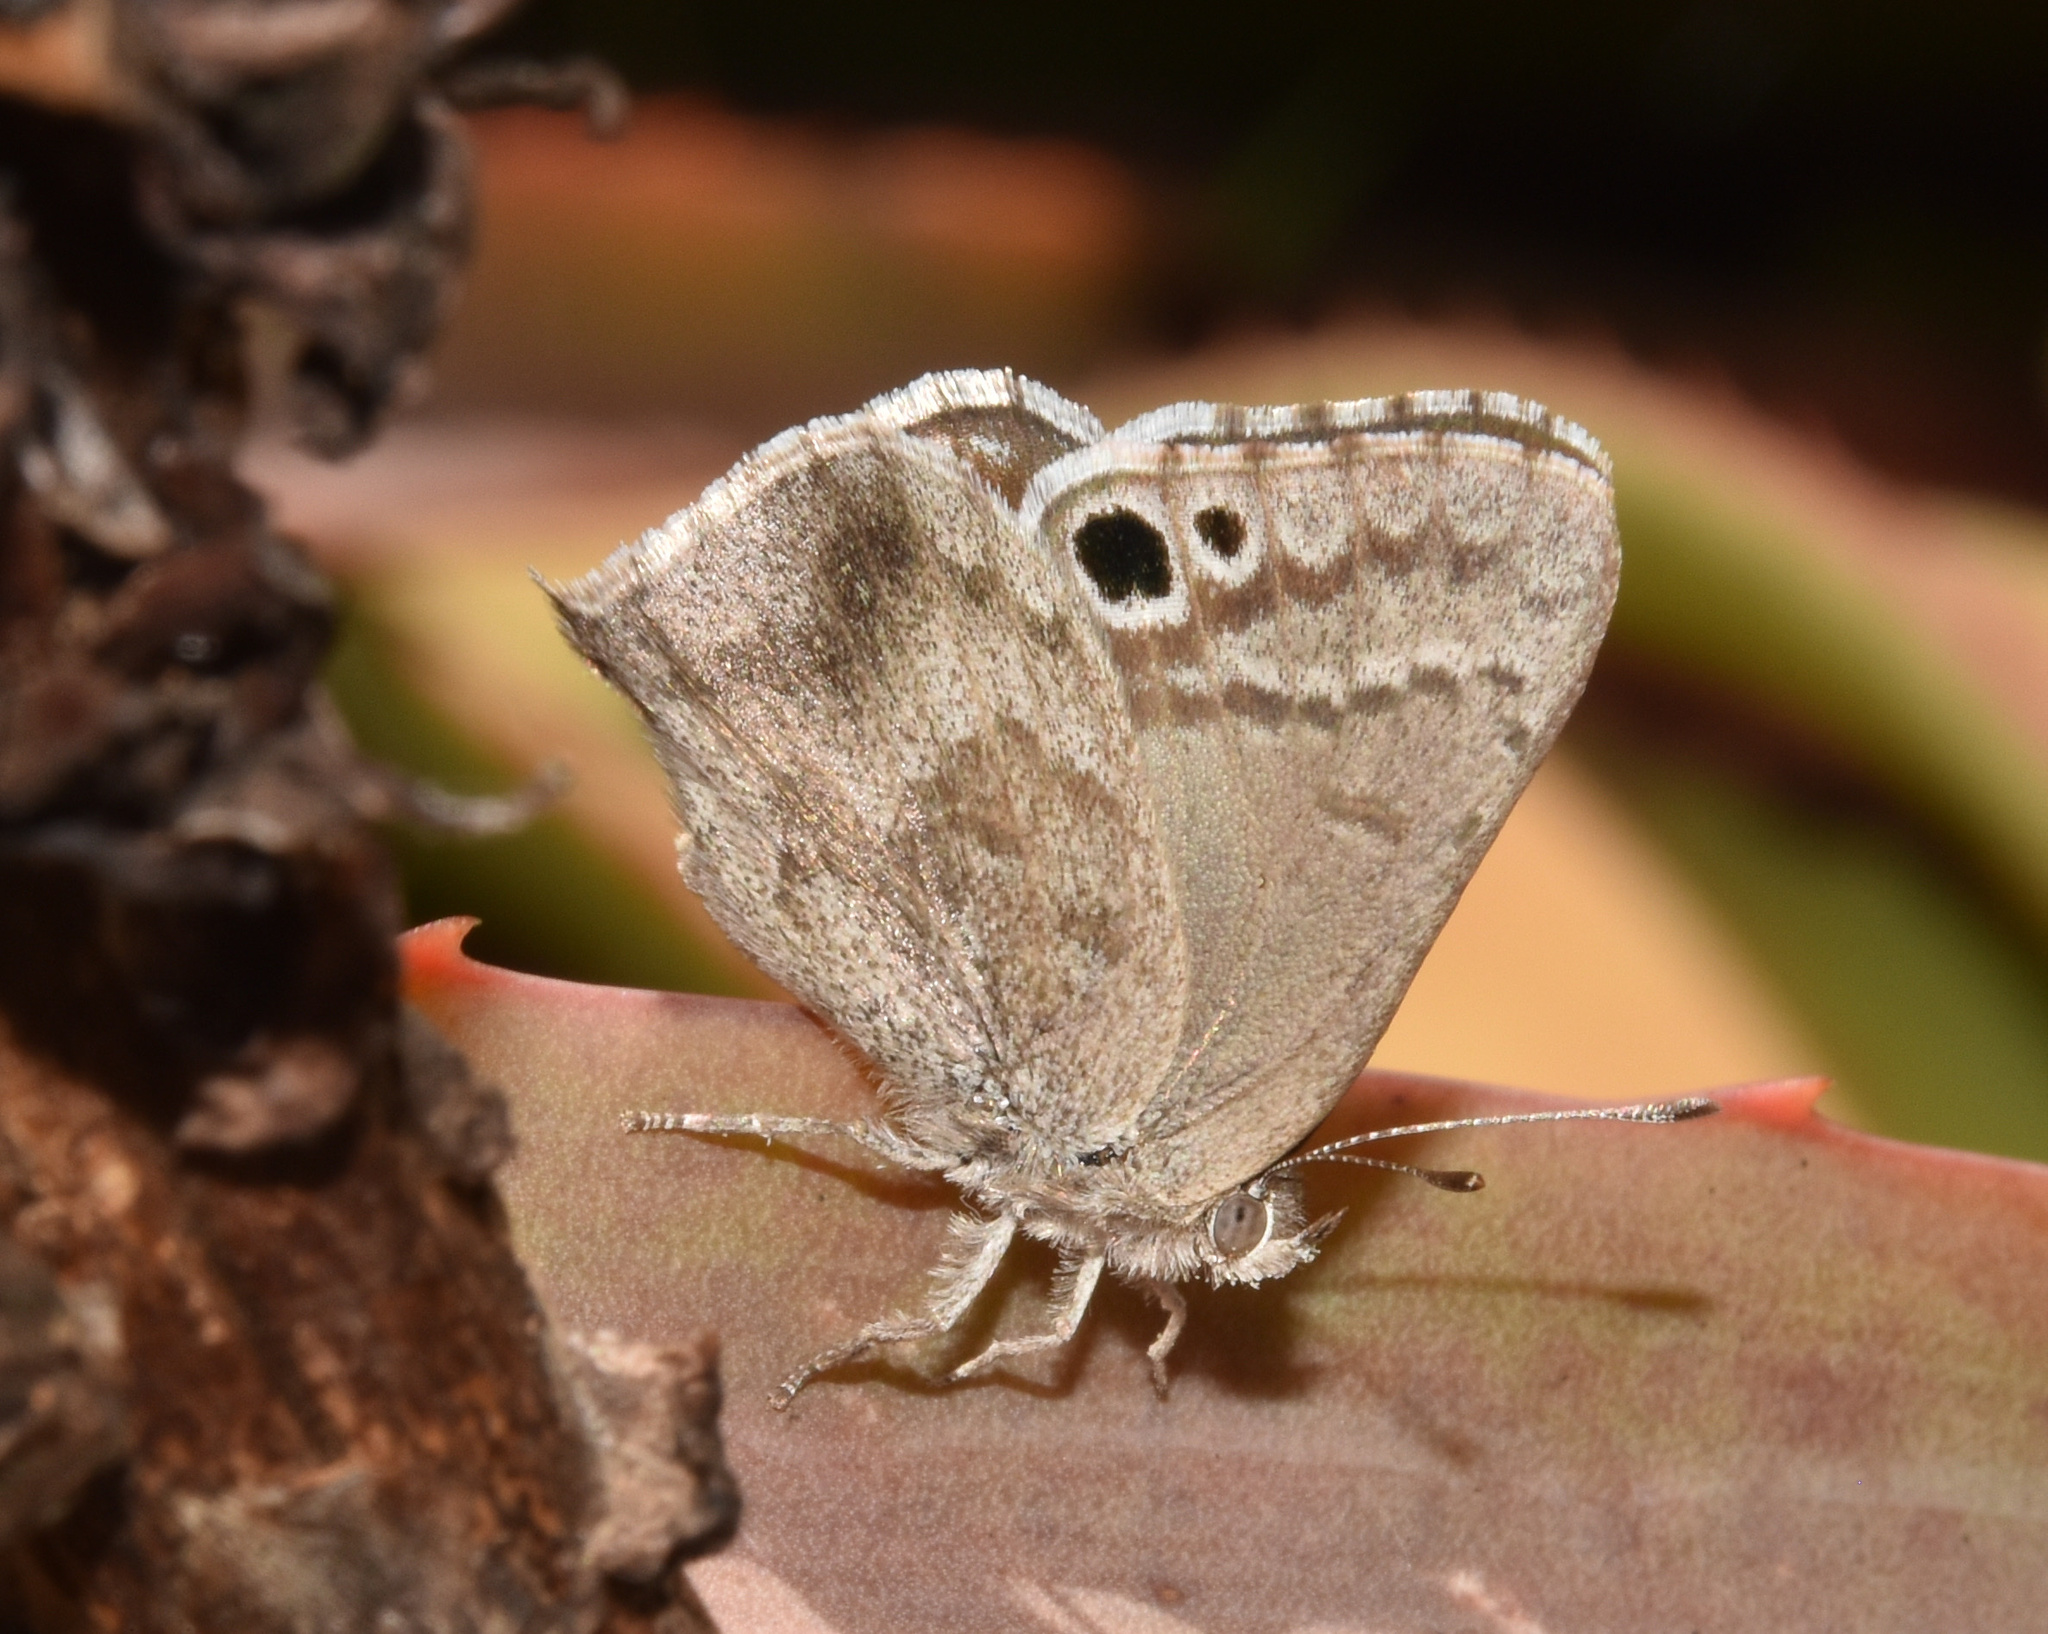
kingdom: Animalia
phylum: Arthropoda
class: Insecta
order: Lepidoptera
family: Lycaenidae
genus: Leptomyrina
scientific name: Leptomyrina gorgias
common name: Common black-eye
